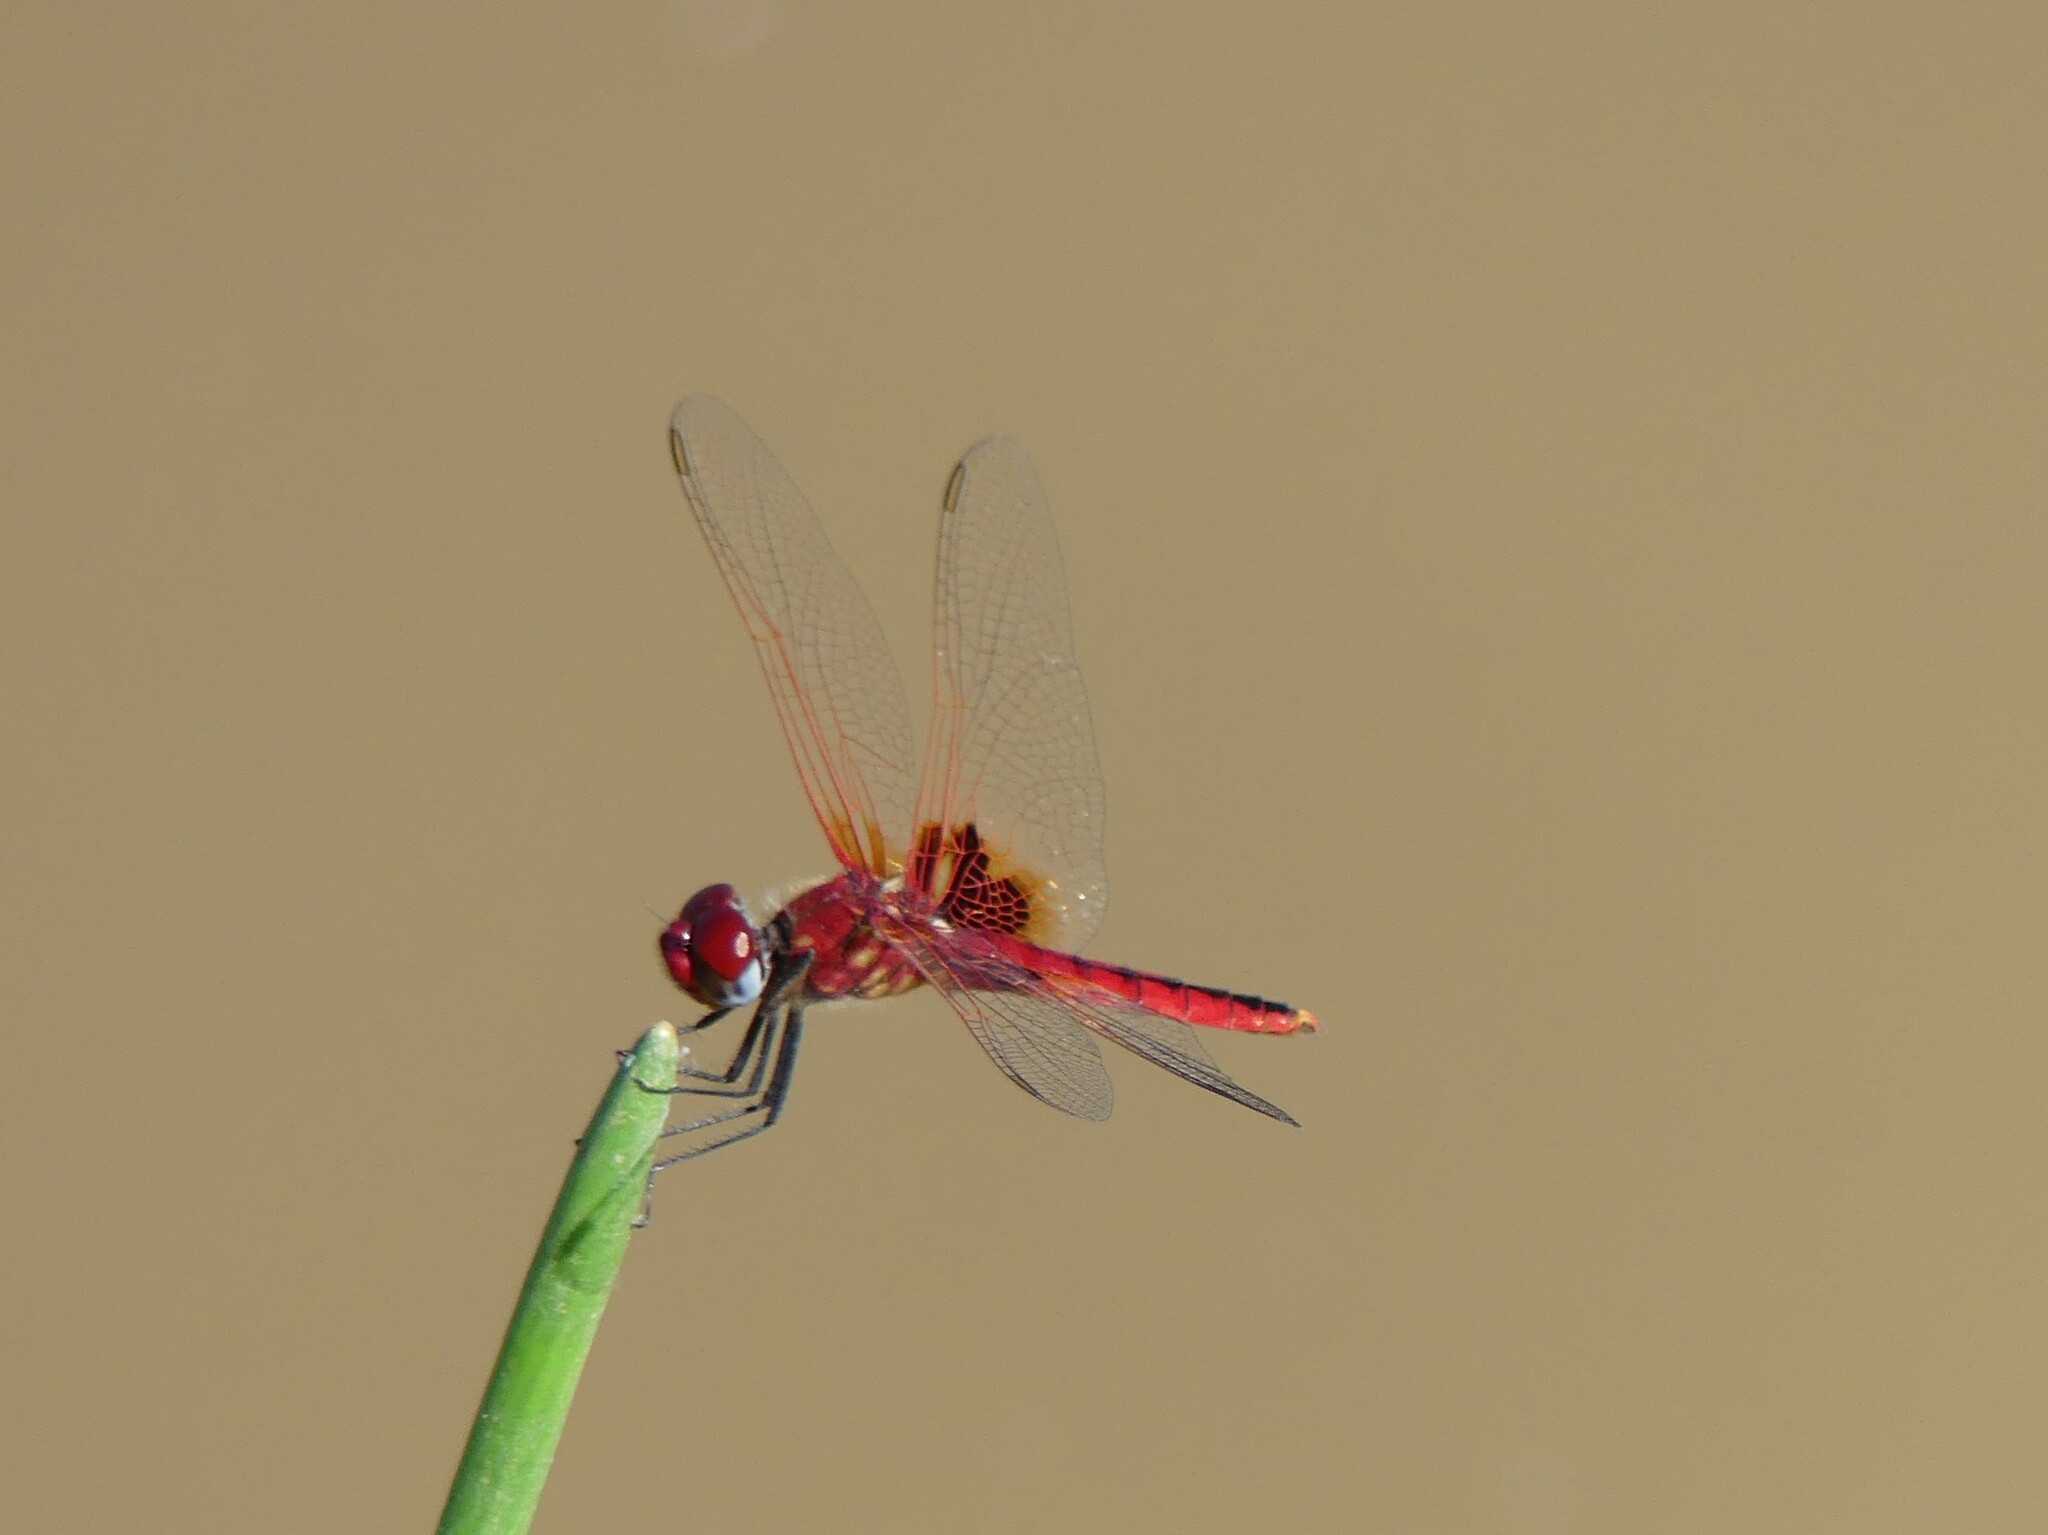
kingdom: Animalia
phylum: Arthropoda
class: Insecta
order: Odonata
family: Libellulidae
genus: Urothemis
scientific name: Urothemis assignata
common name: Red basker
